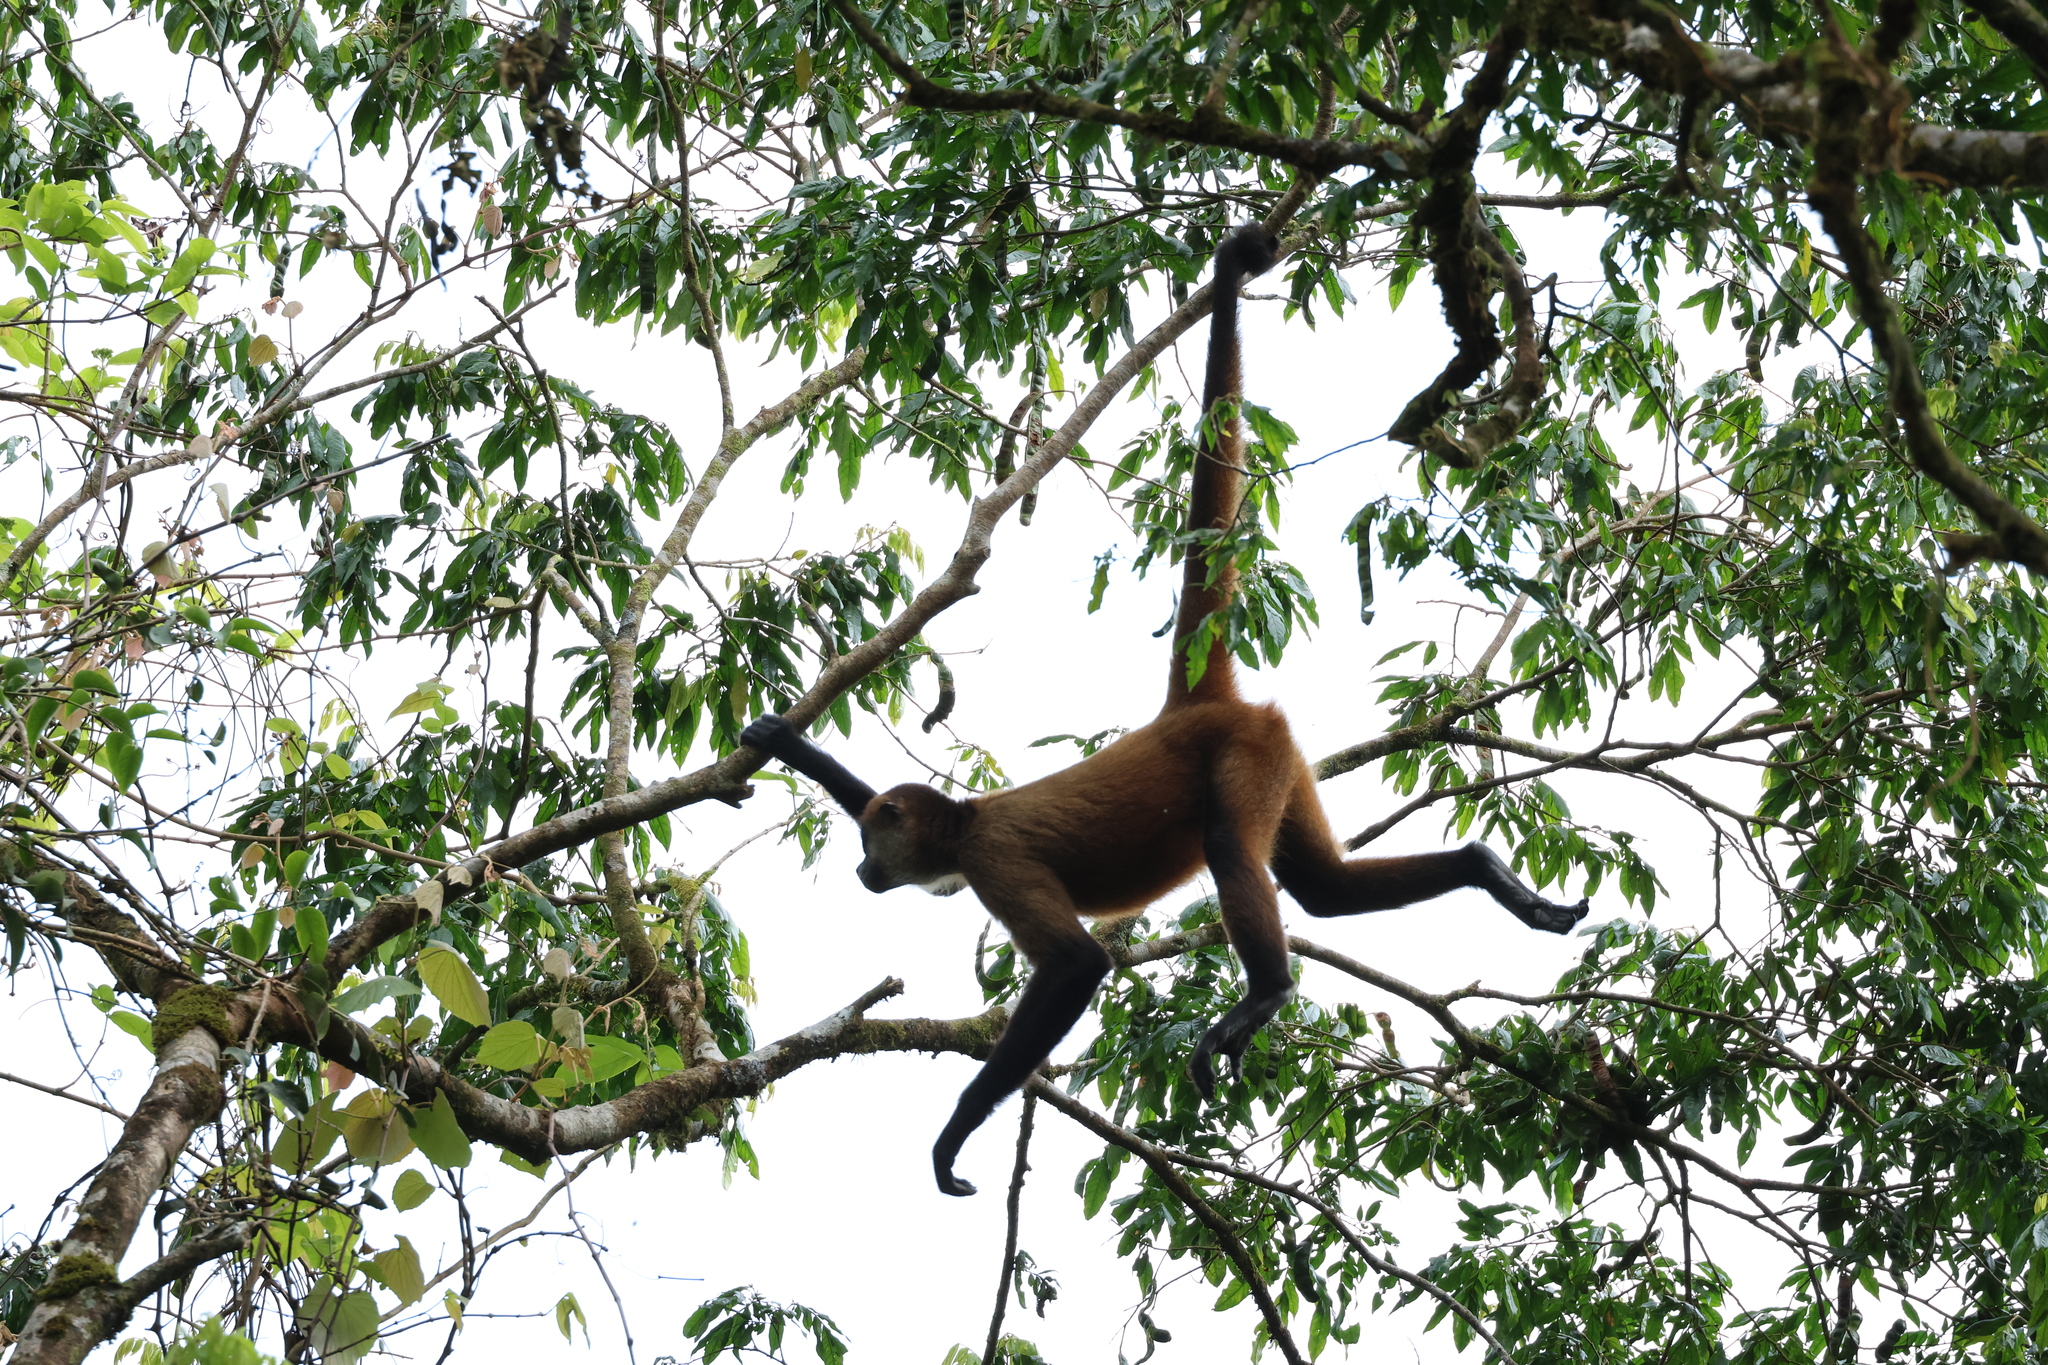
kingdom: Animalia
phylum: Chordata
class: Mammalia
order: Primates
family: Atelidae
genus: Ateles
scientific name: Ateles geoffroyi
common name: Black-handed spider monkey
